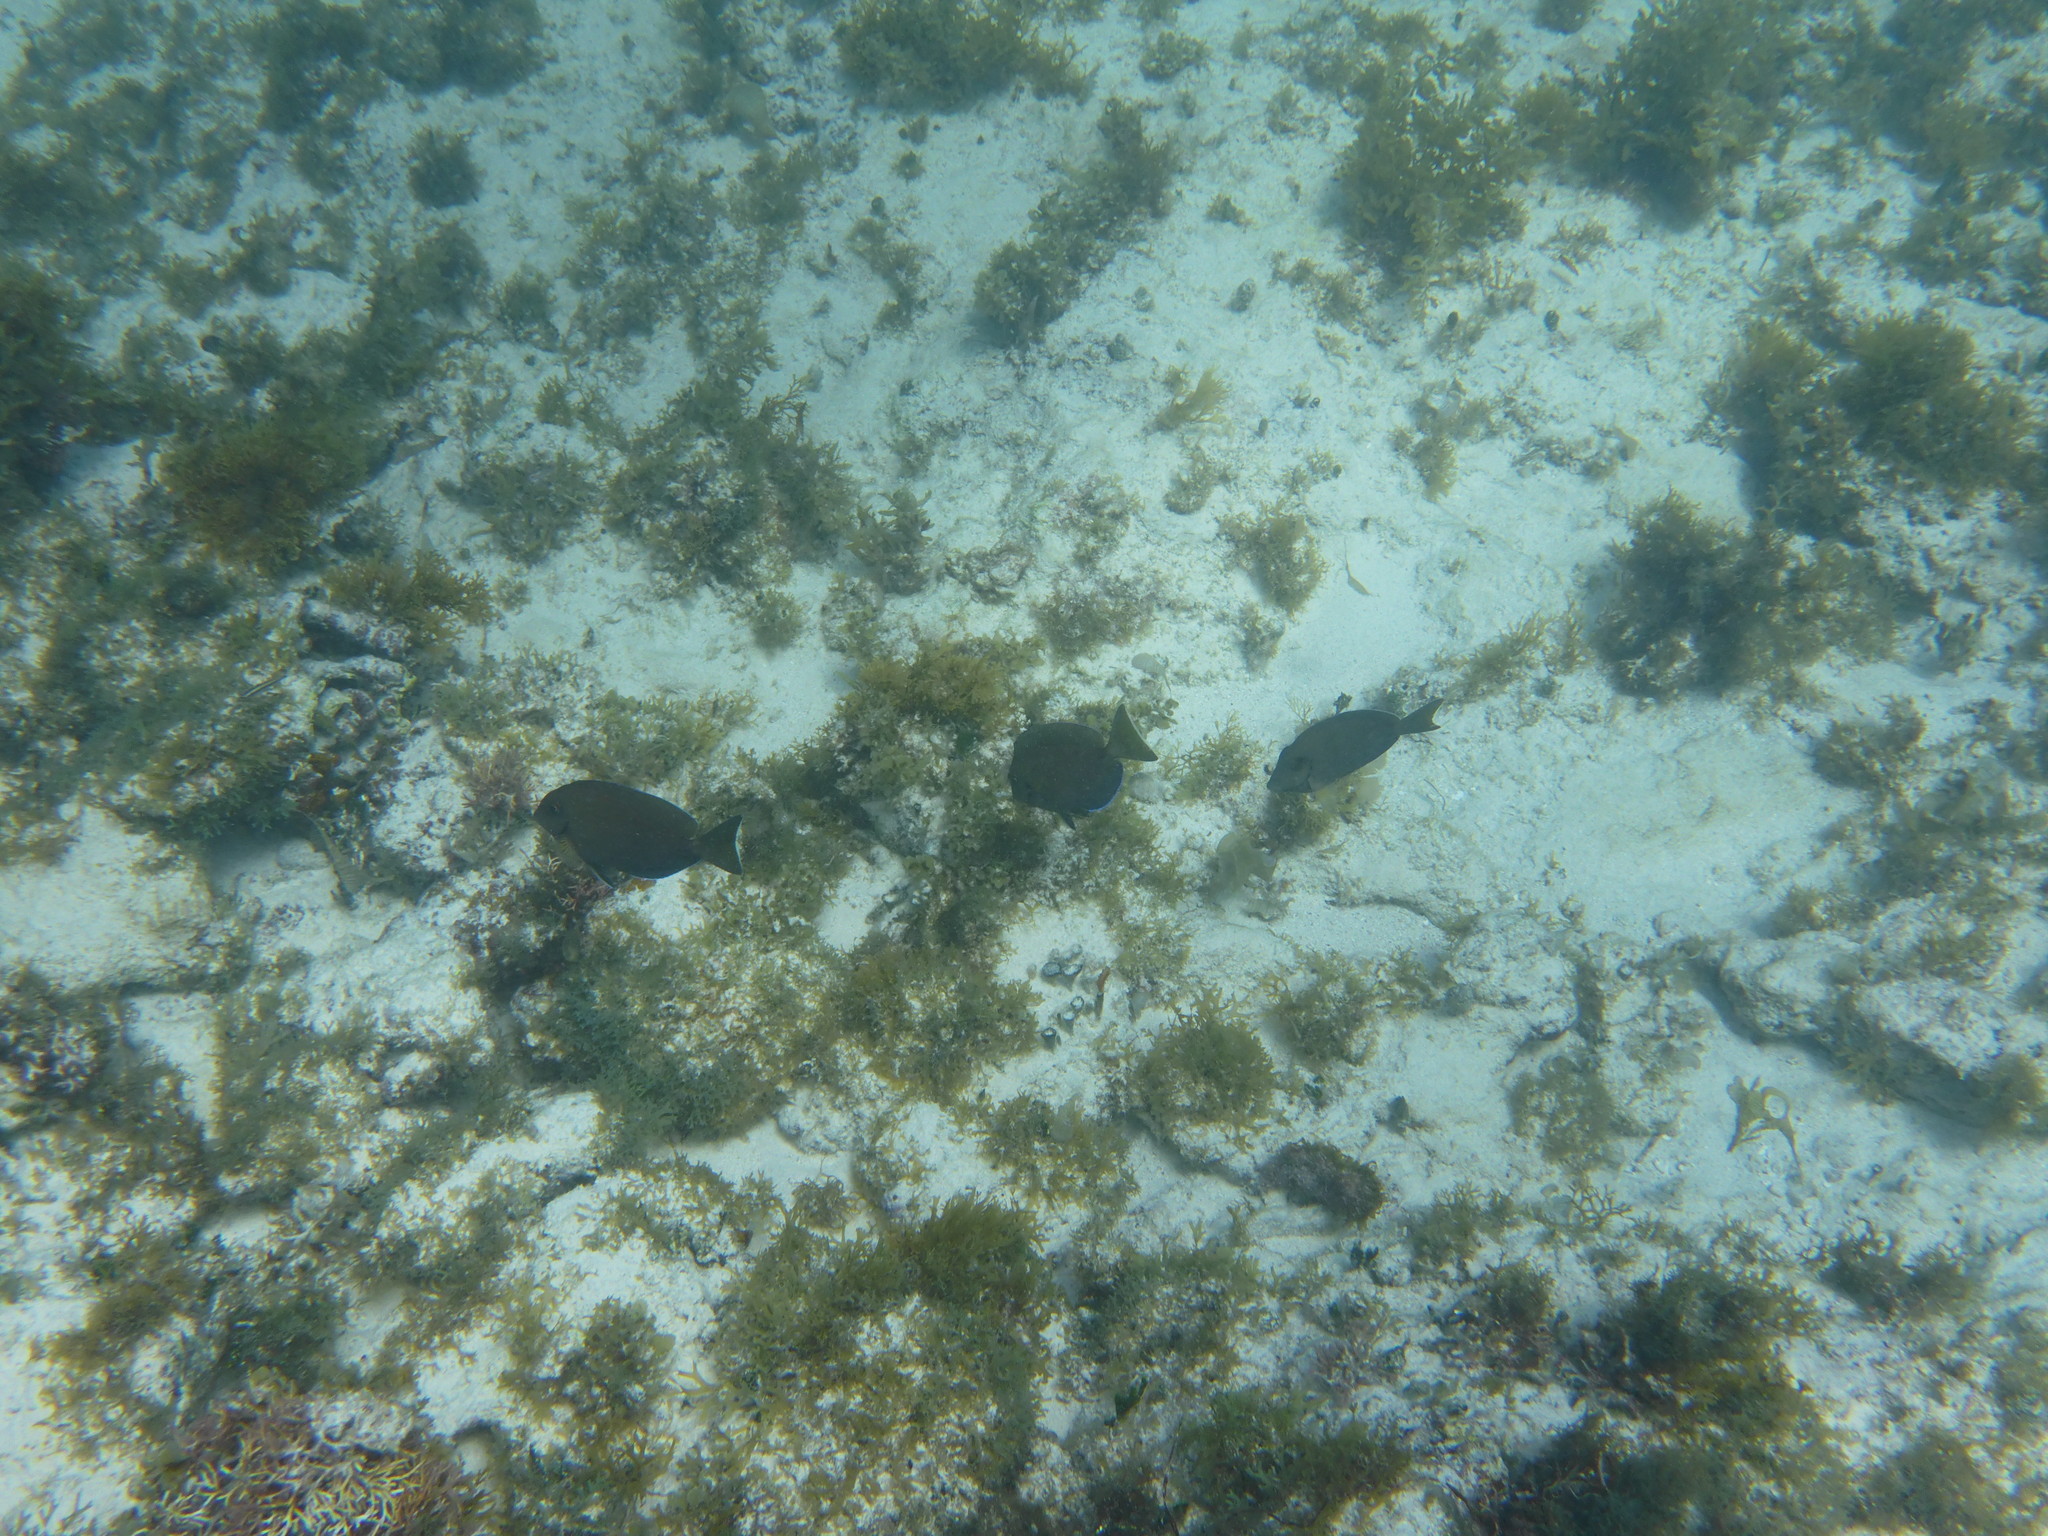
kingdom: Animalia
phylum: Chordata
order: Perciformes
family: Acanthuridae
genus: Acanthurus
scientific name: Acanthurus bahianus
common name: Ocean surgeon
